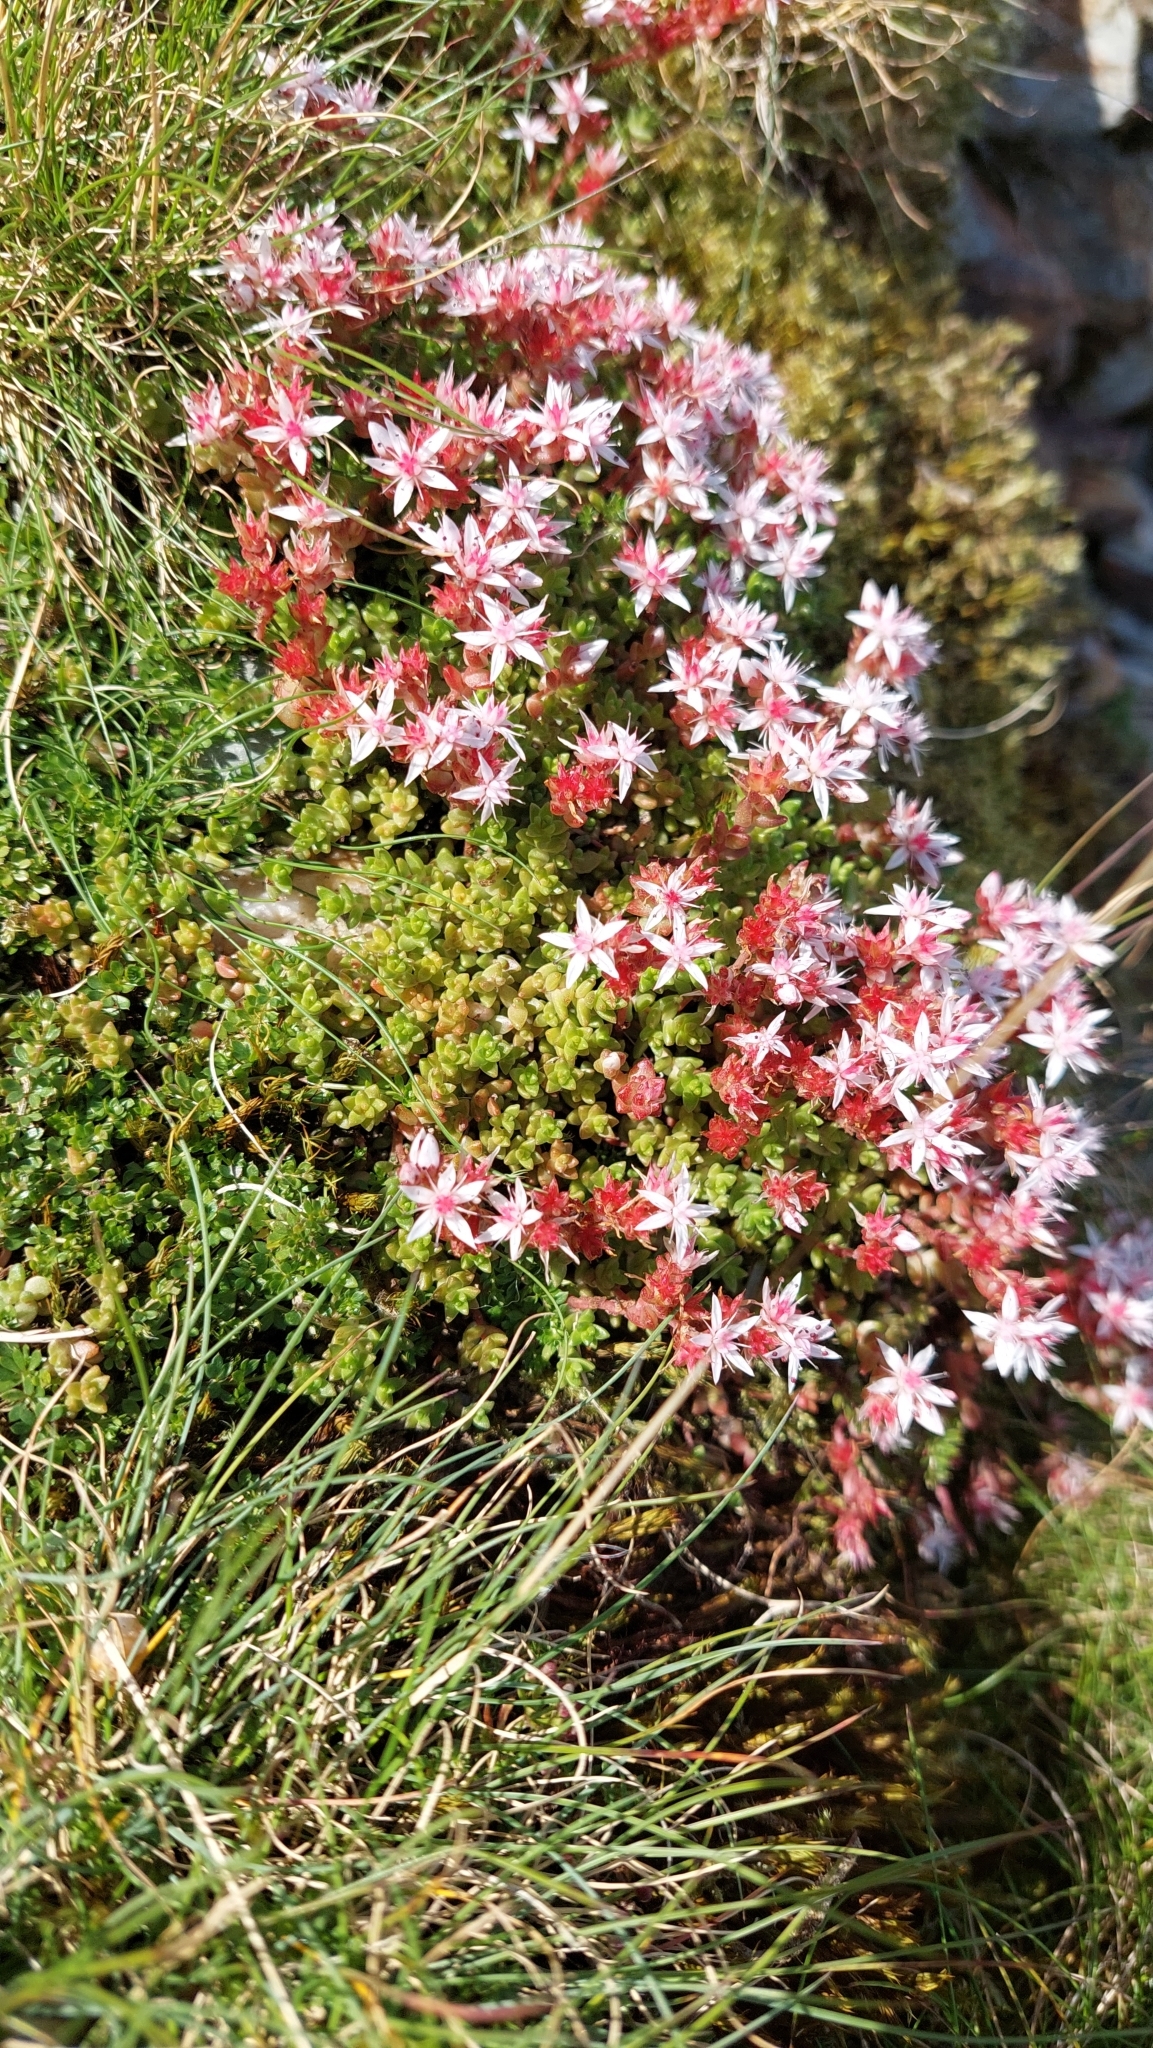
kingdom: Plantae
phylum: Tracheophyta
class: Magnoliopsida
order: Saxifragales
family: Crassulaceae
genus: Sedum
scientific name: Sedum anglicum
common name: English stonecrop
